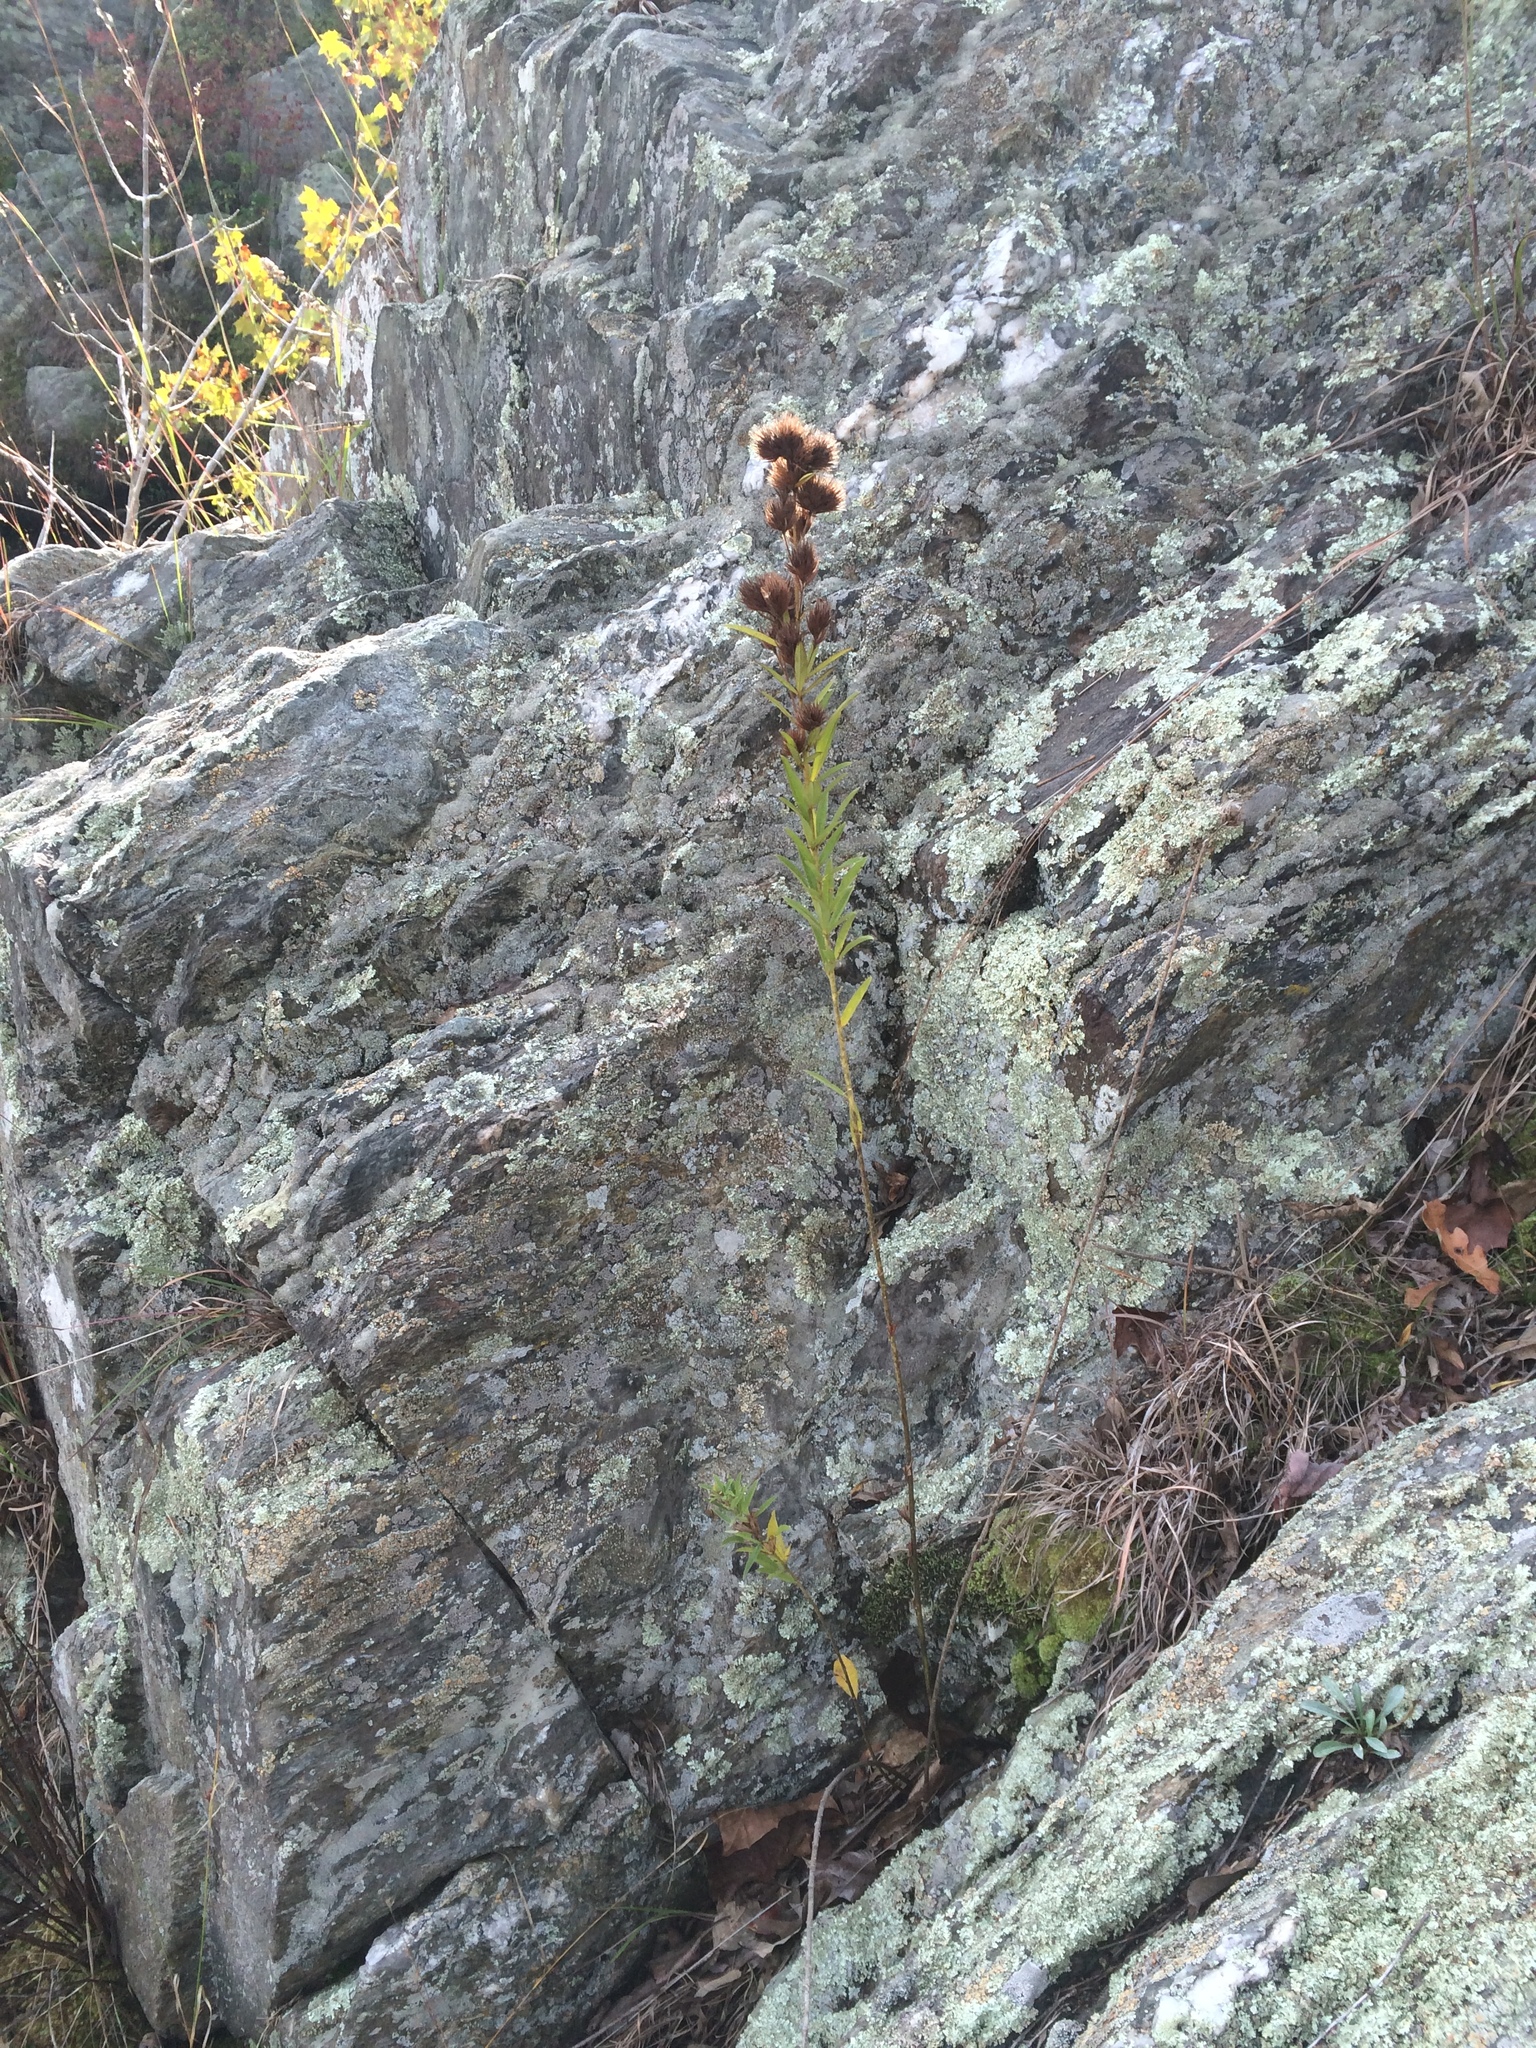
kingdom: Plantae
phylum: Tracheophyta
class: Magnoliopsida
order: Fabales
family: Fabaceae
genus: Lespedeza
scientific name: Lespedeza capitata
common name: Dusty clover
